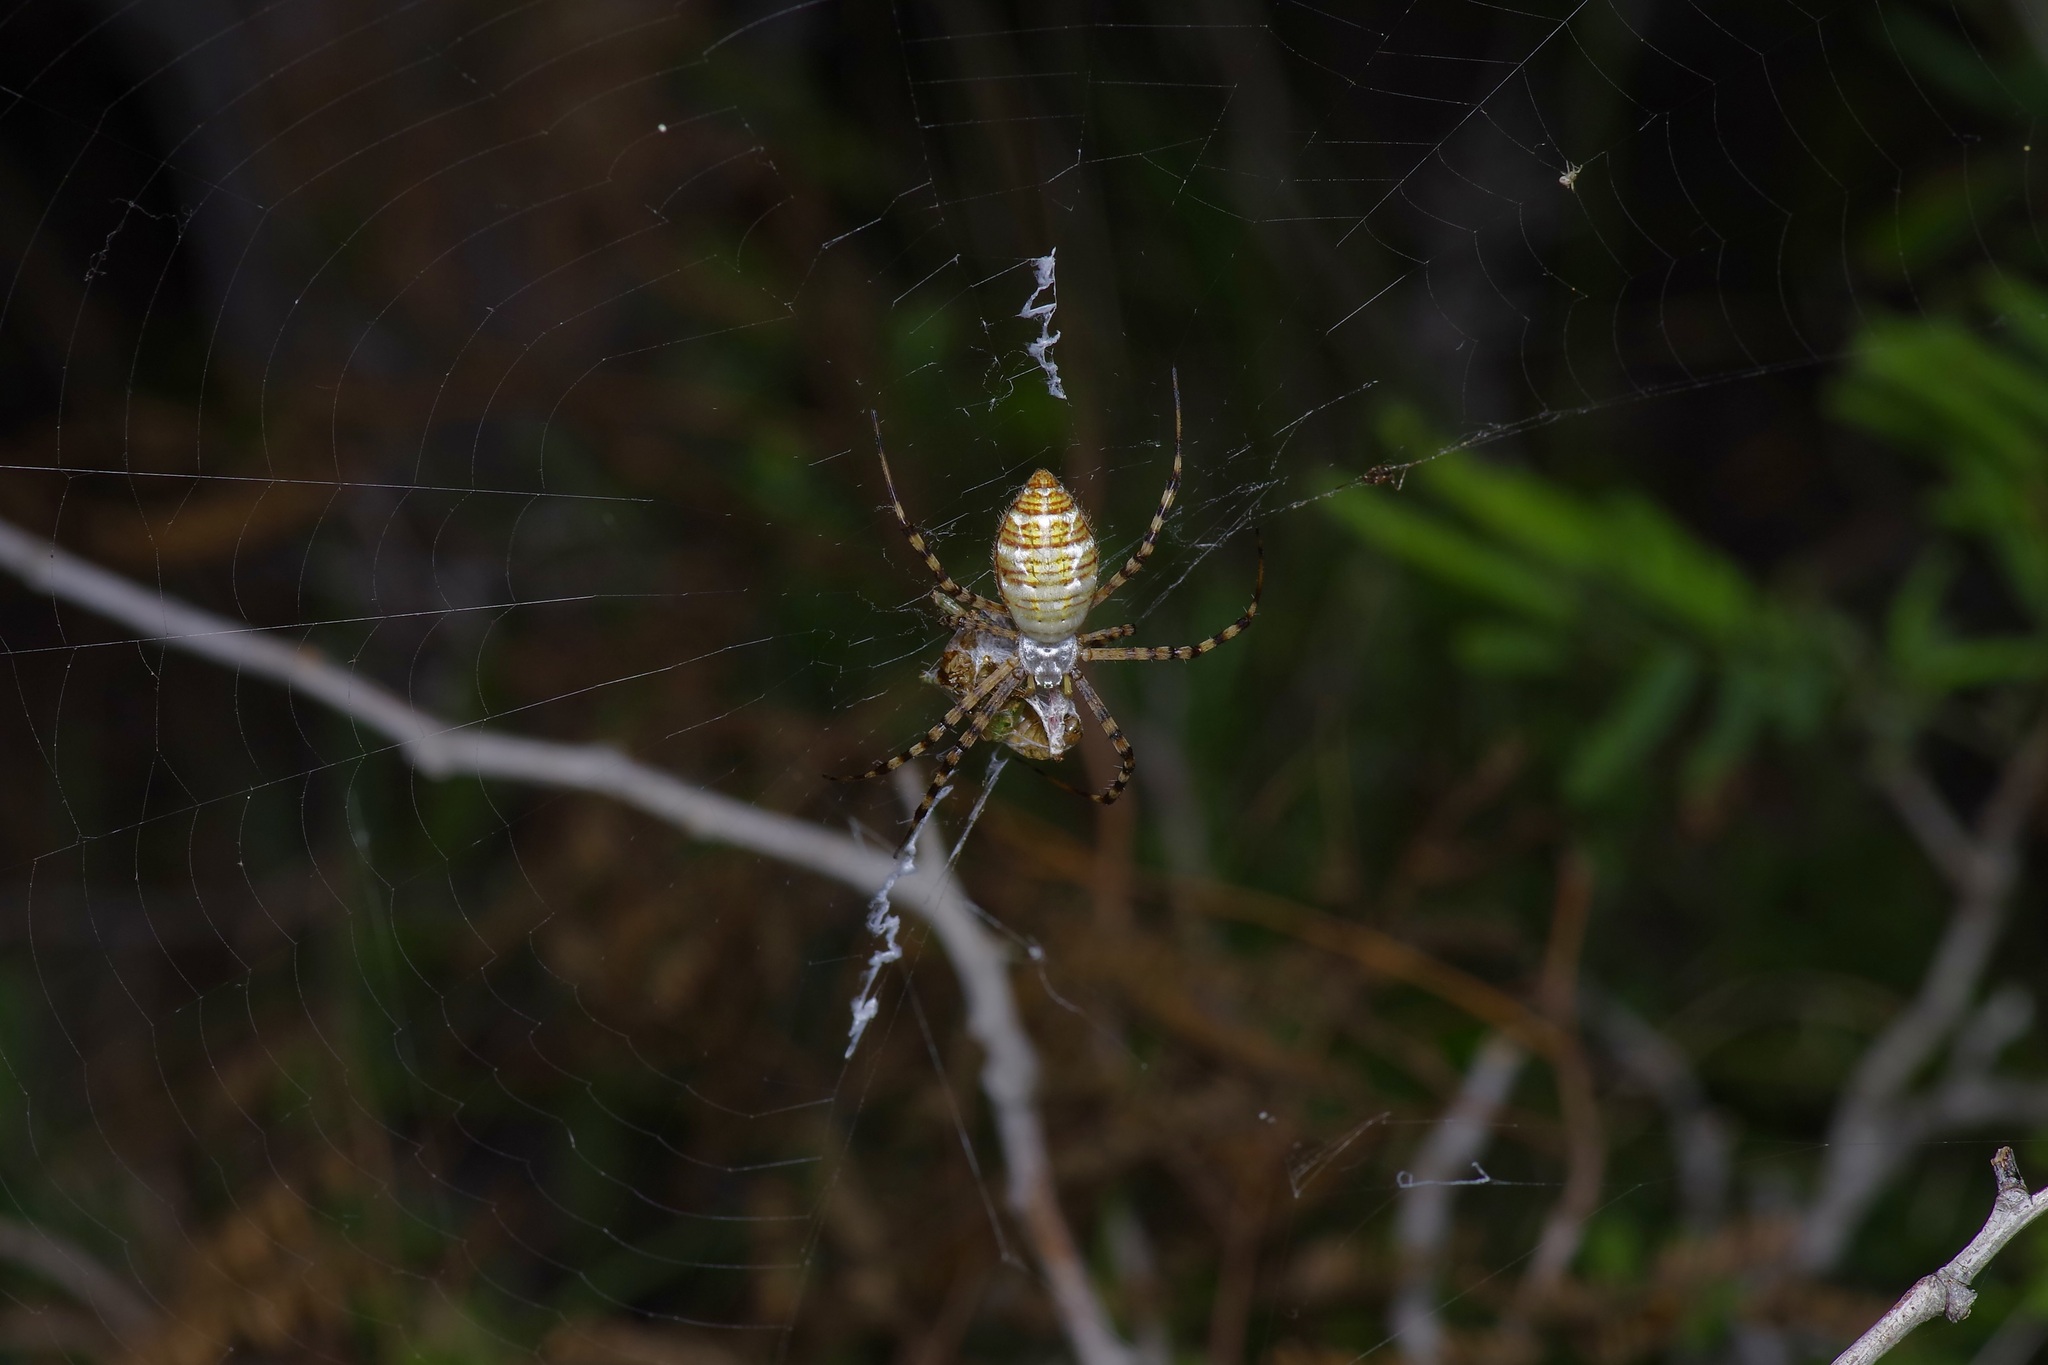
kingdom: Animalia
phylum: Arthropoda
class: Arachnida
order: Araneae
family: Araneidae
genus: Argiope
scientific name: Argiope trifasciata
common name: Banded garden spider
